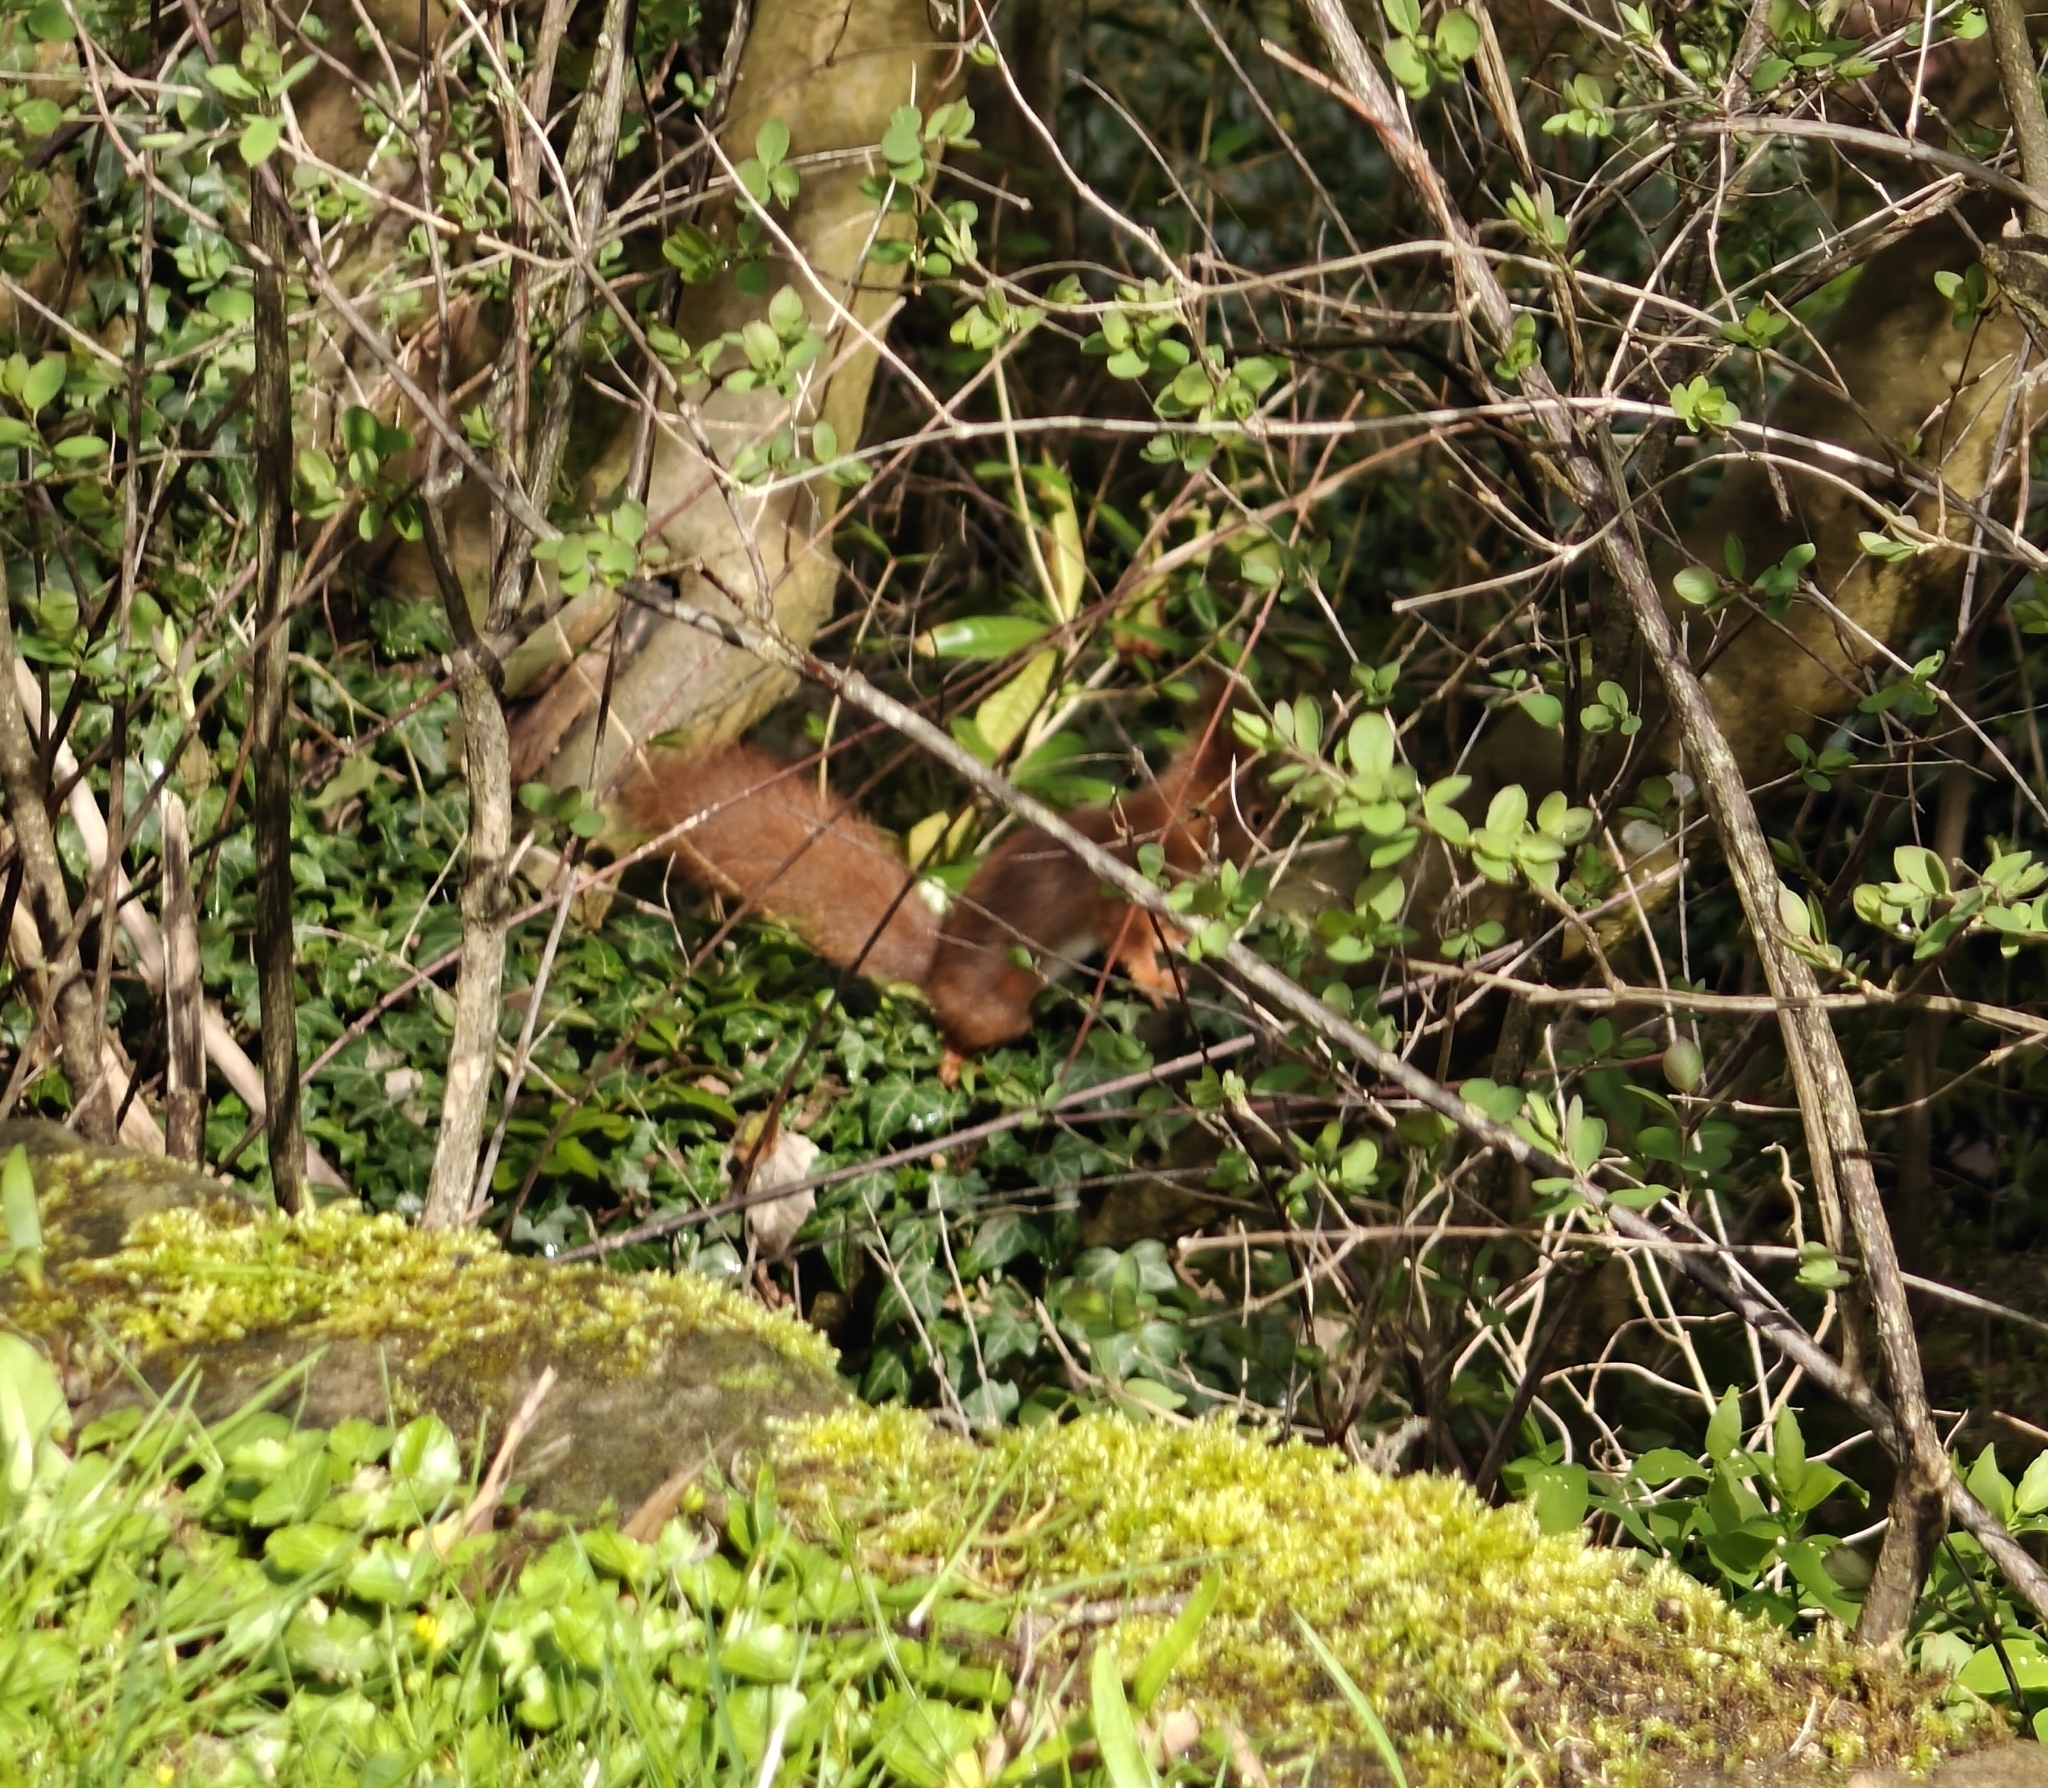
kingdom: Animalia
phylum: Chordata
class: Mammalia
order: Rodentia
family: Sciuridae
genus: Sciurus
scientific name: Sciurus vulgaris
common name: Eurasian red squirrel
